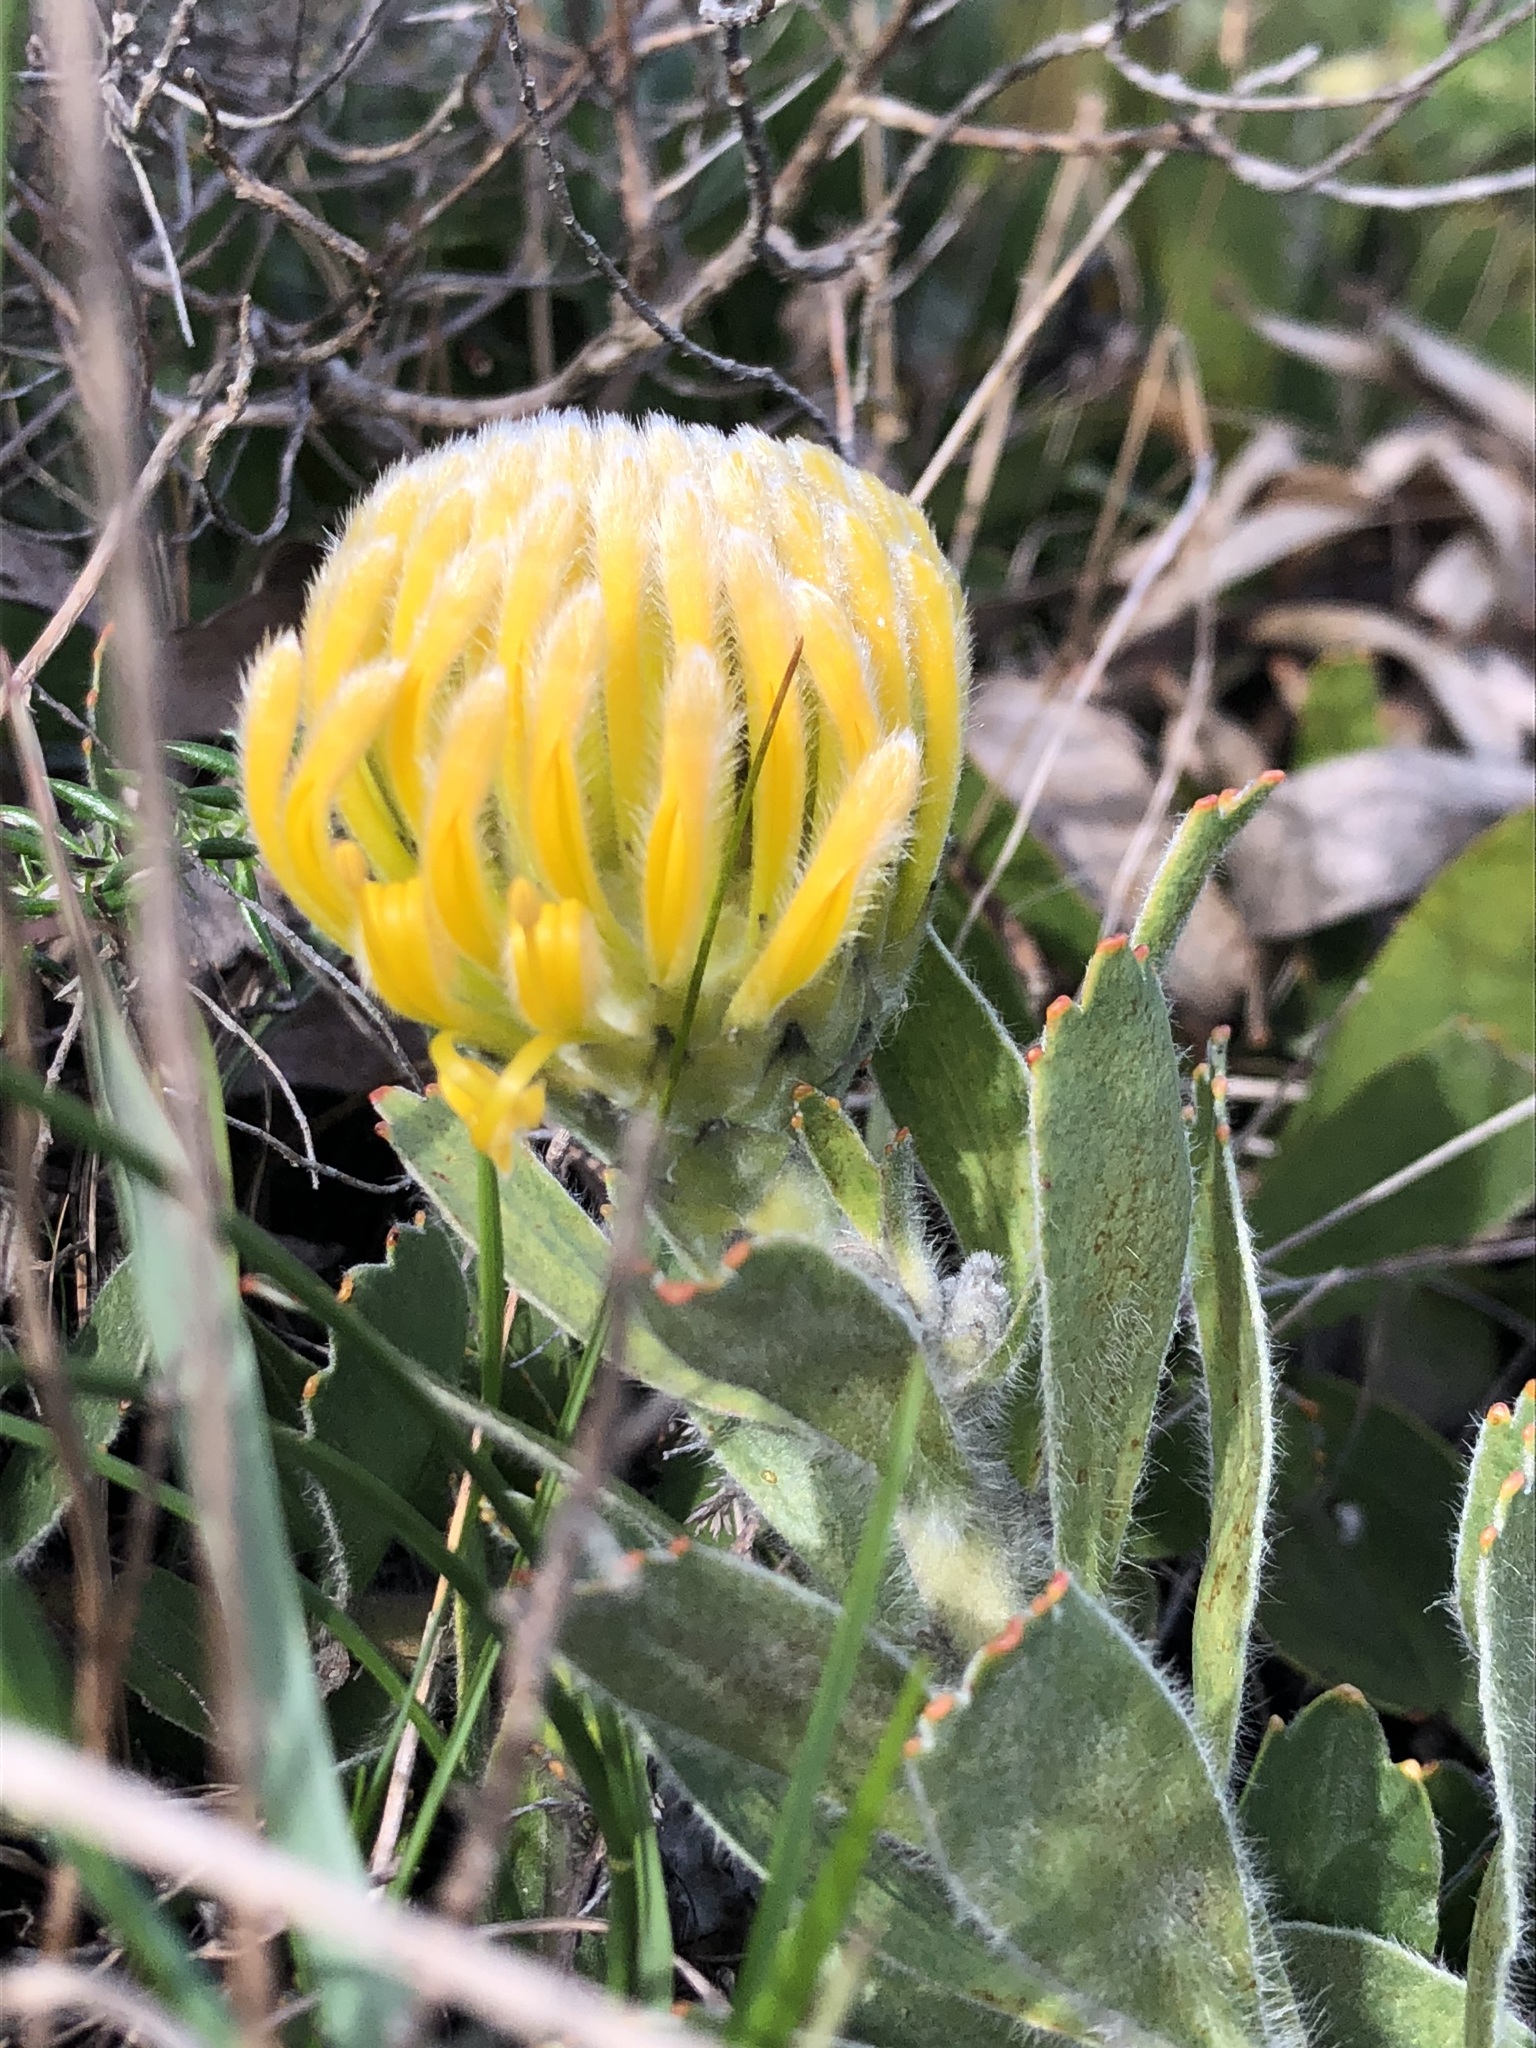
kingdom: Plantae
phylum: Tracheophyta
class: Magnoliopsida
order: Proteales
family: Proteaceae
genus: Leucospermum
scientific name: Leucospermum
